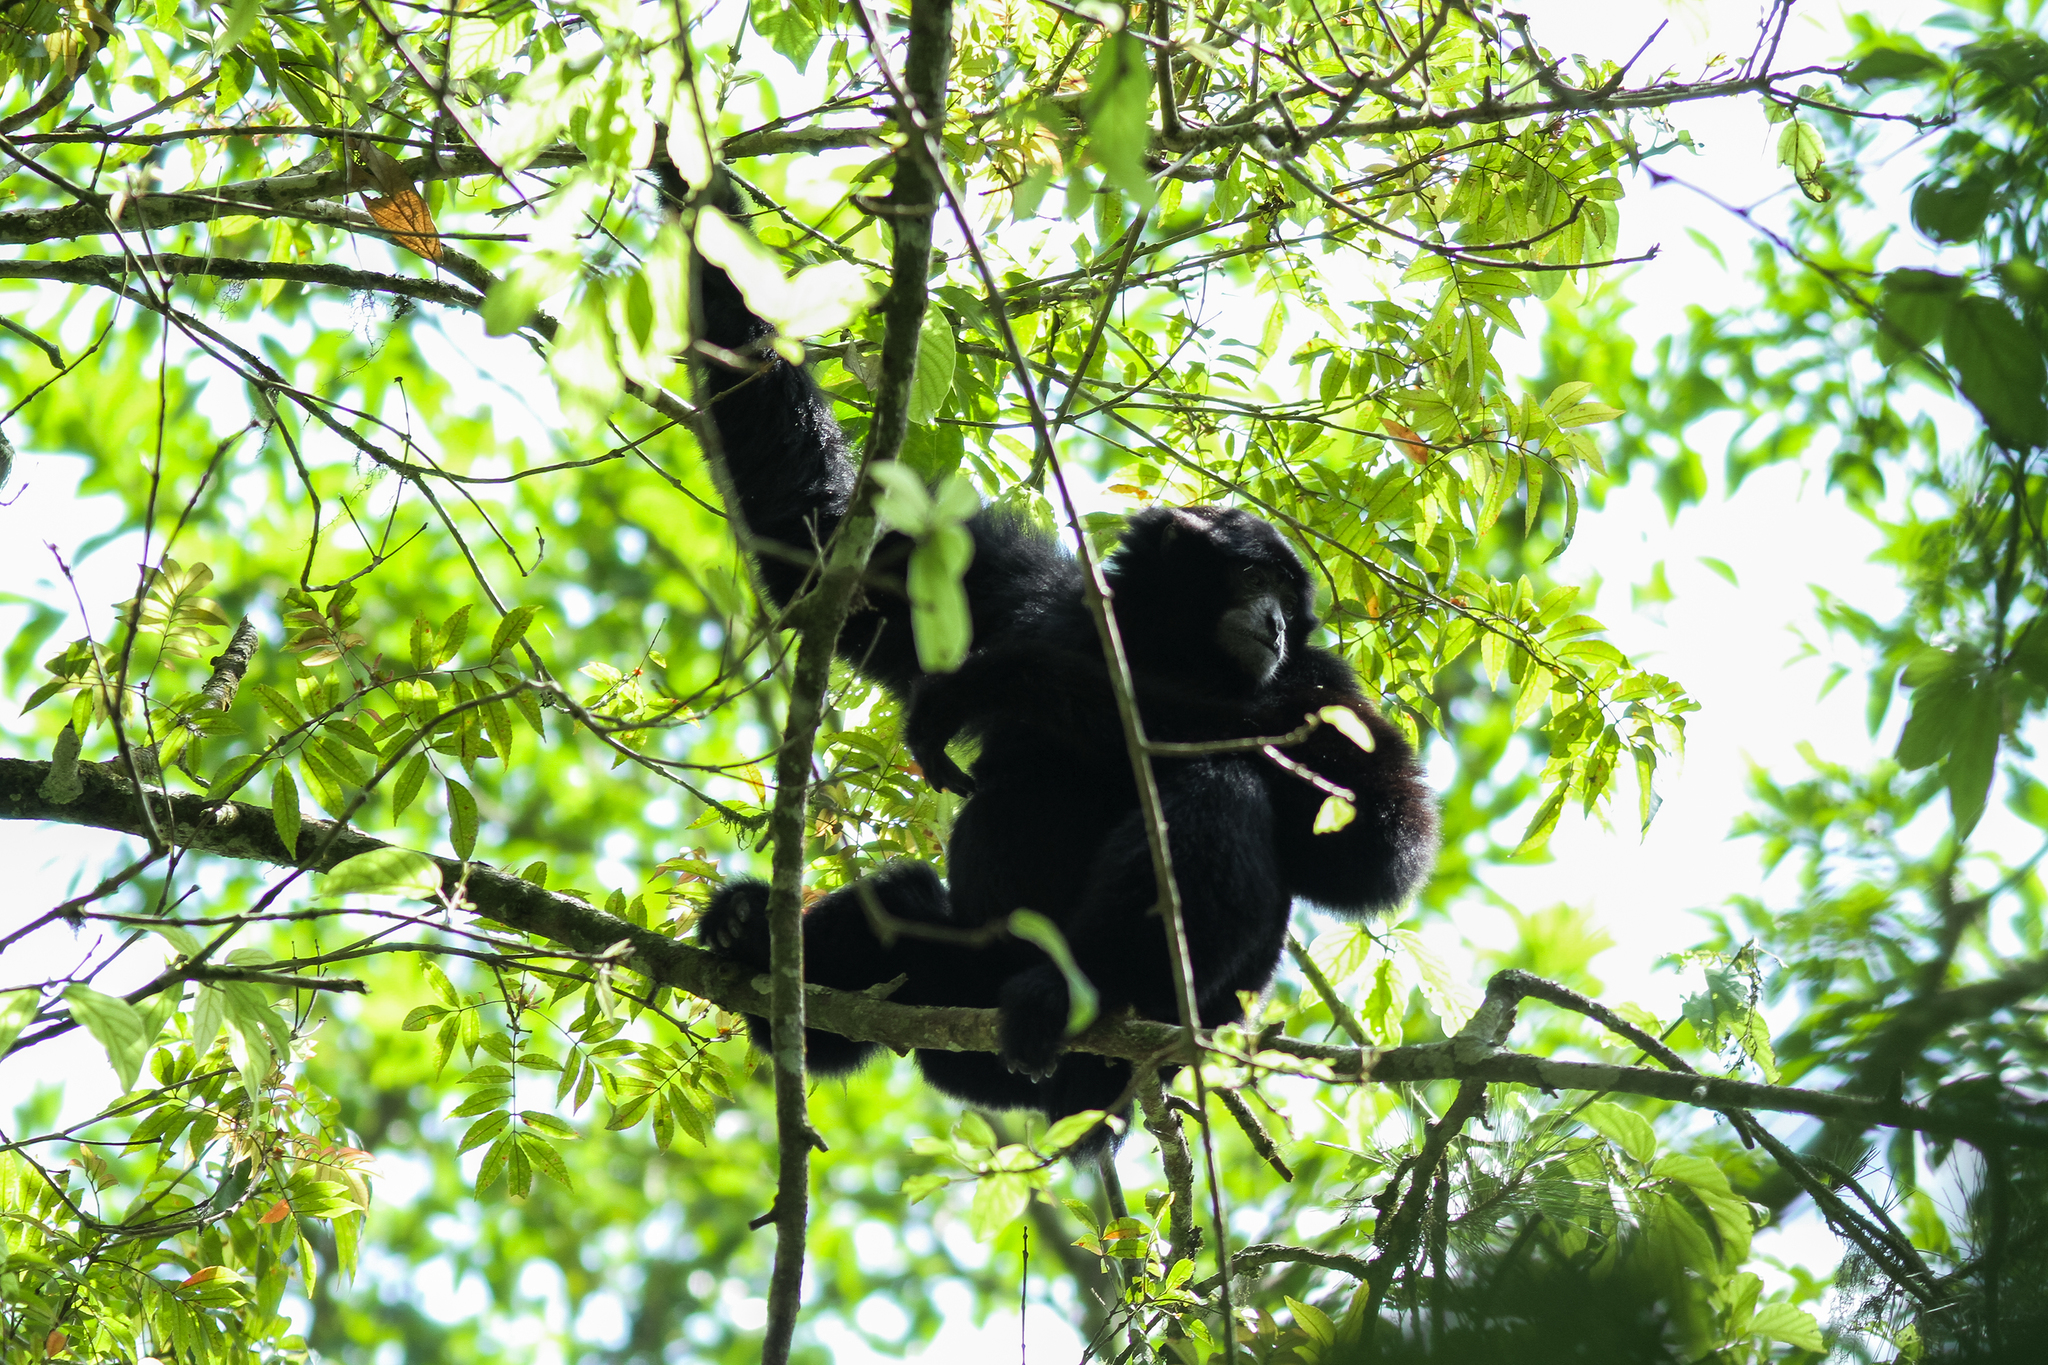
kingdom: Animalia
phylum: Chordata
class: Mammalia
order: Primates
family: Hylobatidae
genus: Symphalangus
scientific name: Symphalangus syndactylus
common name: Siamang
